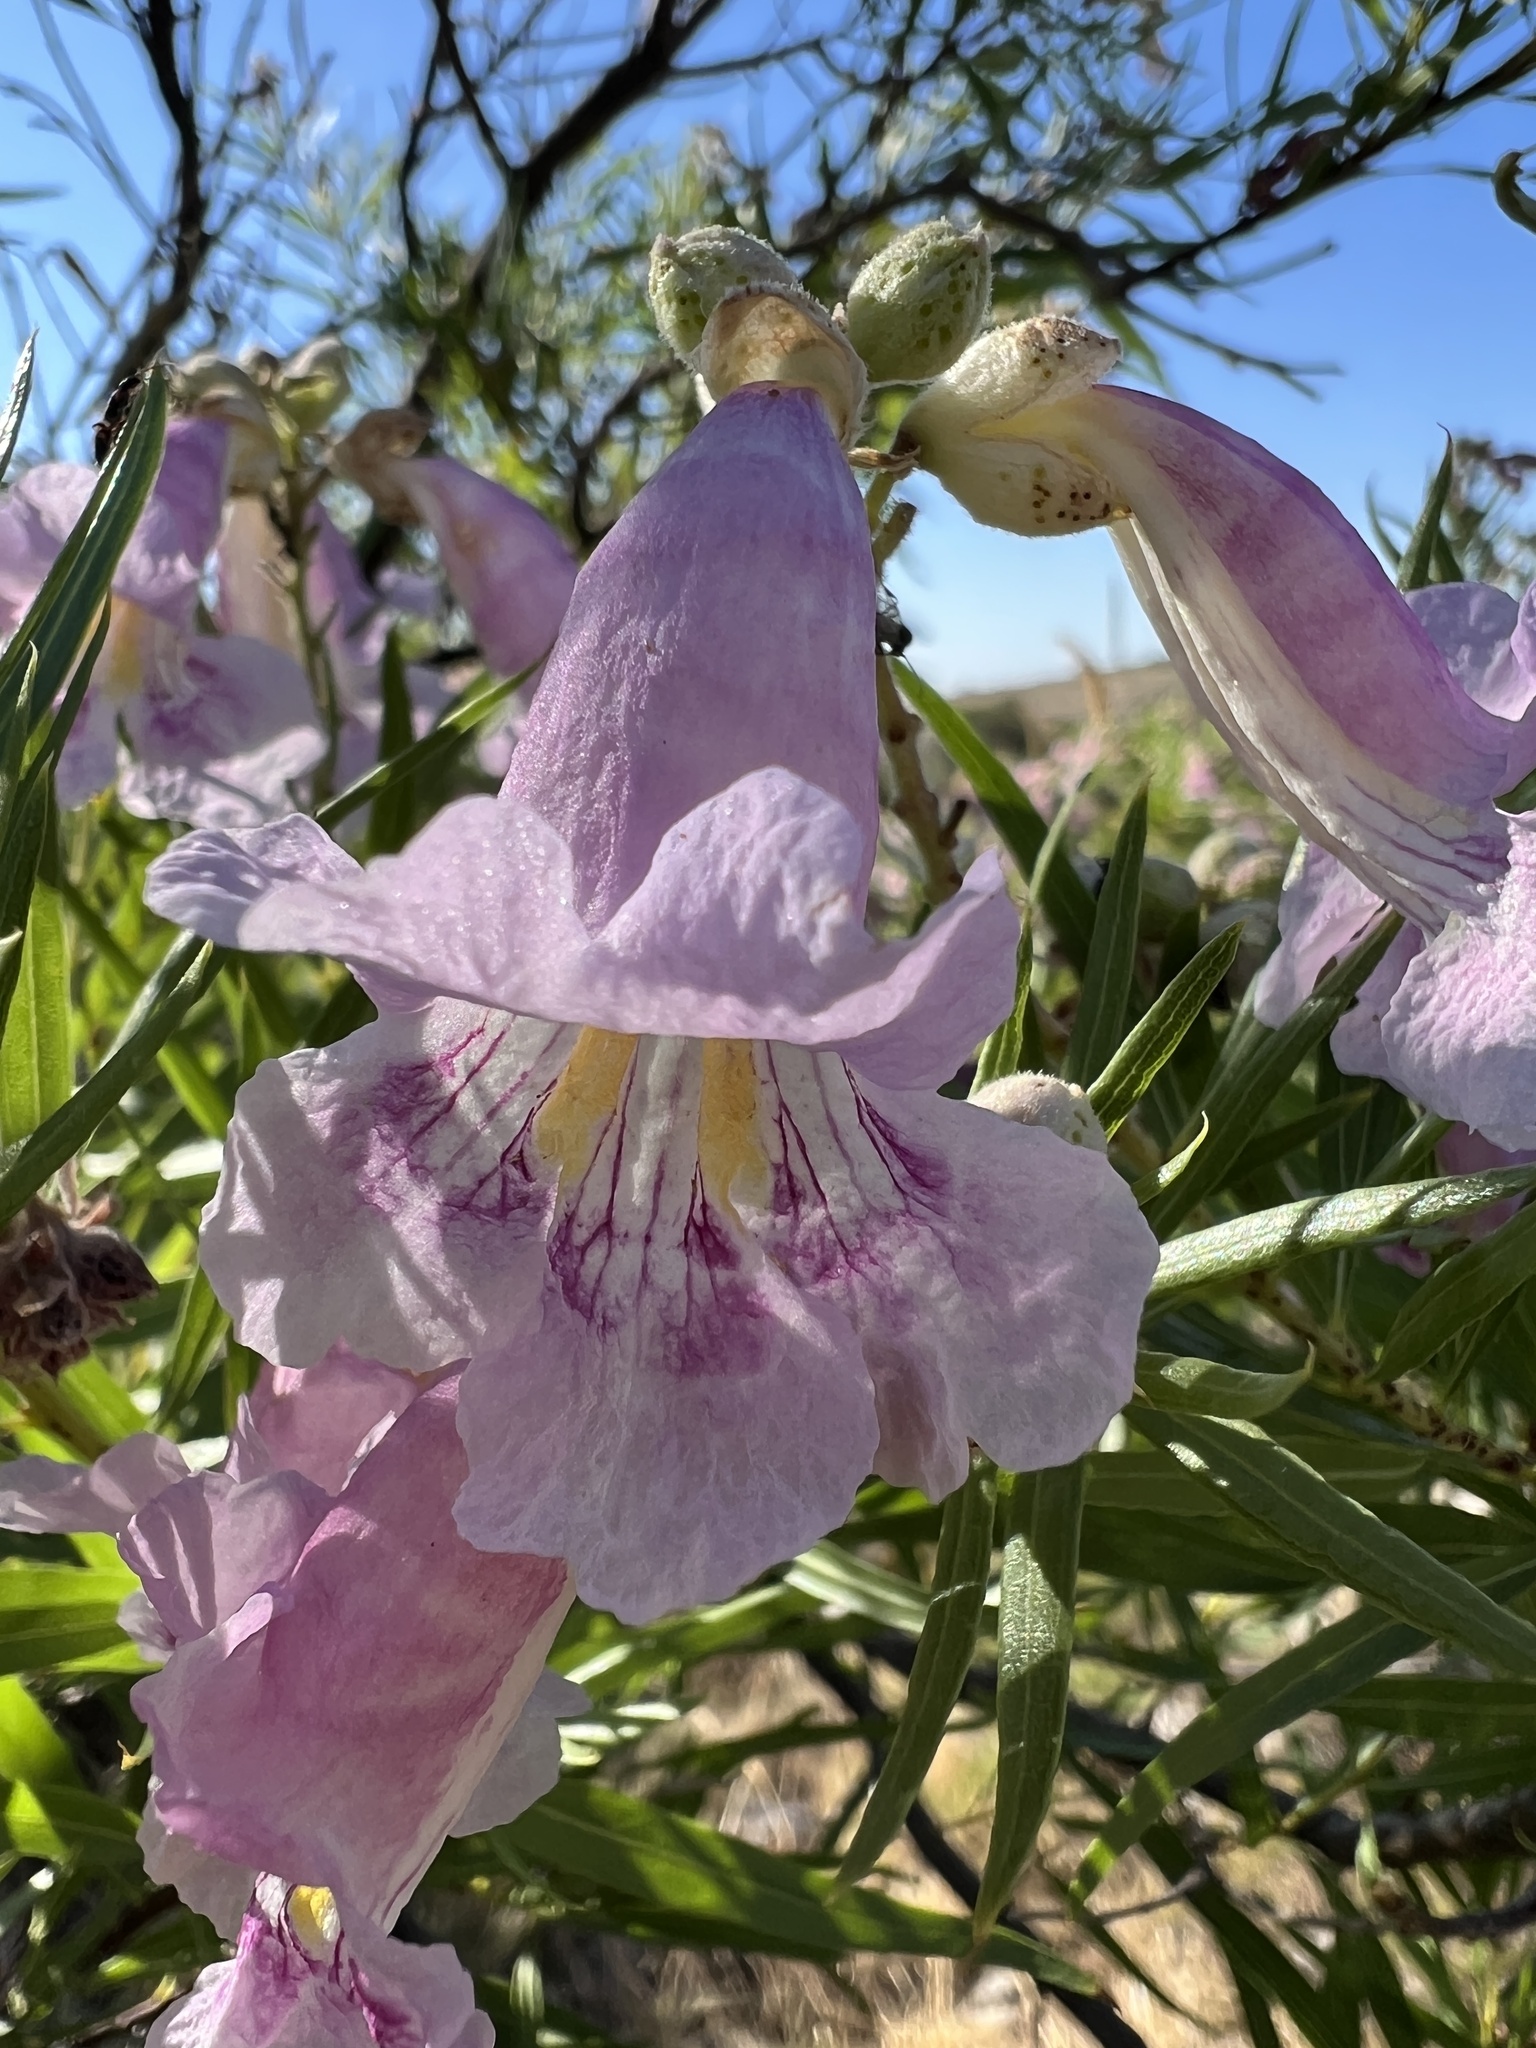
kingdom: Plantae
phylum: Tracheophyta
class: Magnoliopsida
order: Lamiales
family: Bignoniaceae
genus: Chilopsis
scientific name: Chilopsis linearis
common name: Desert-willow
